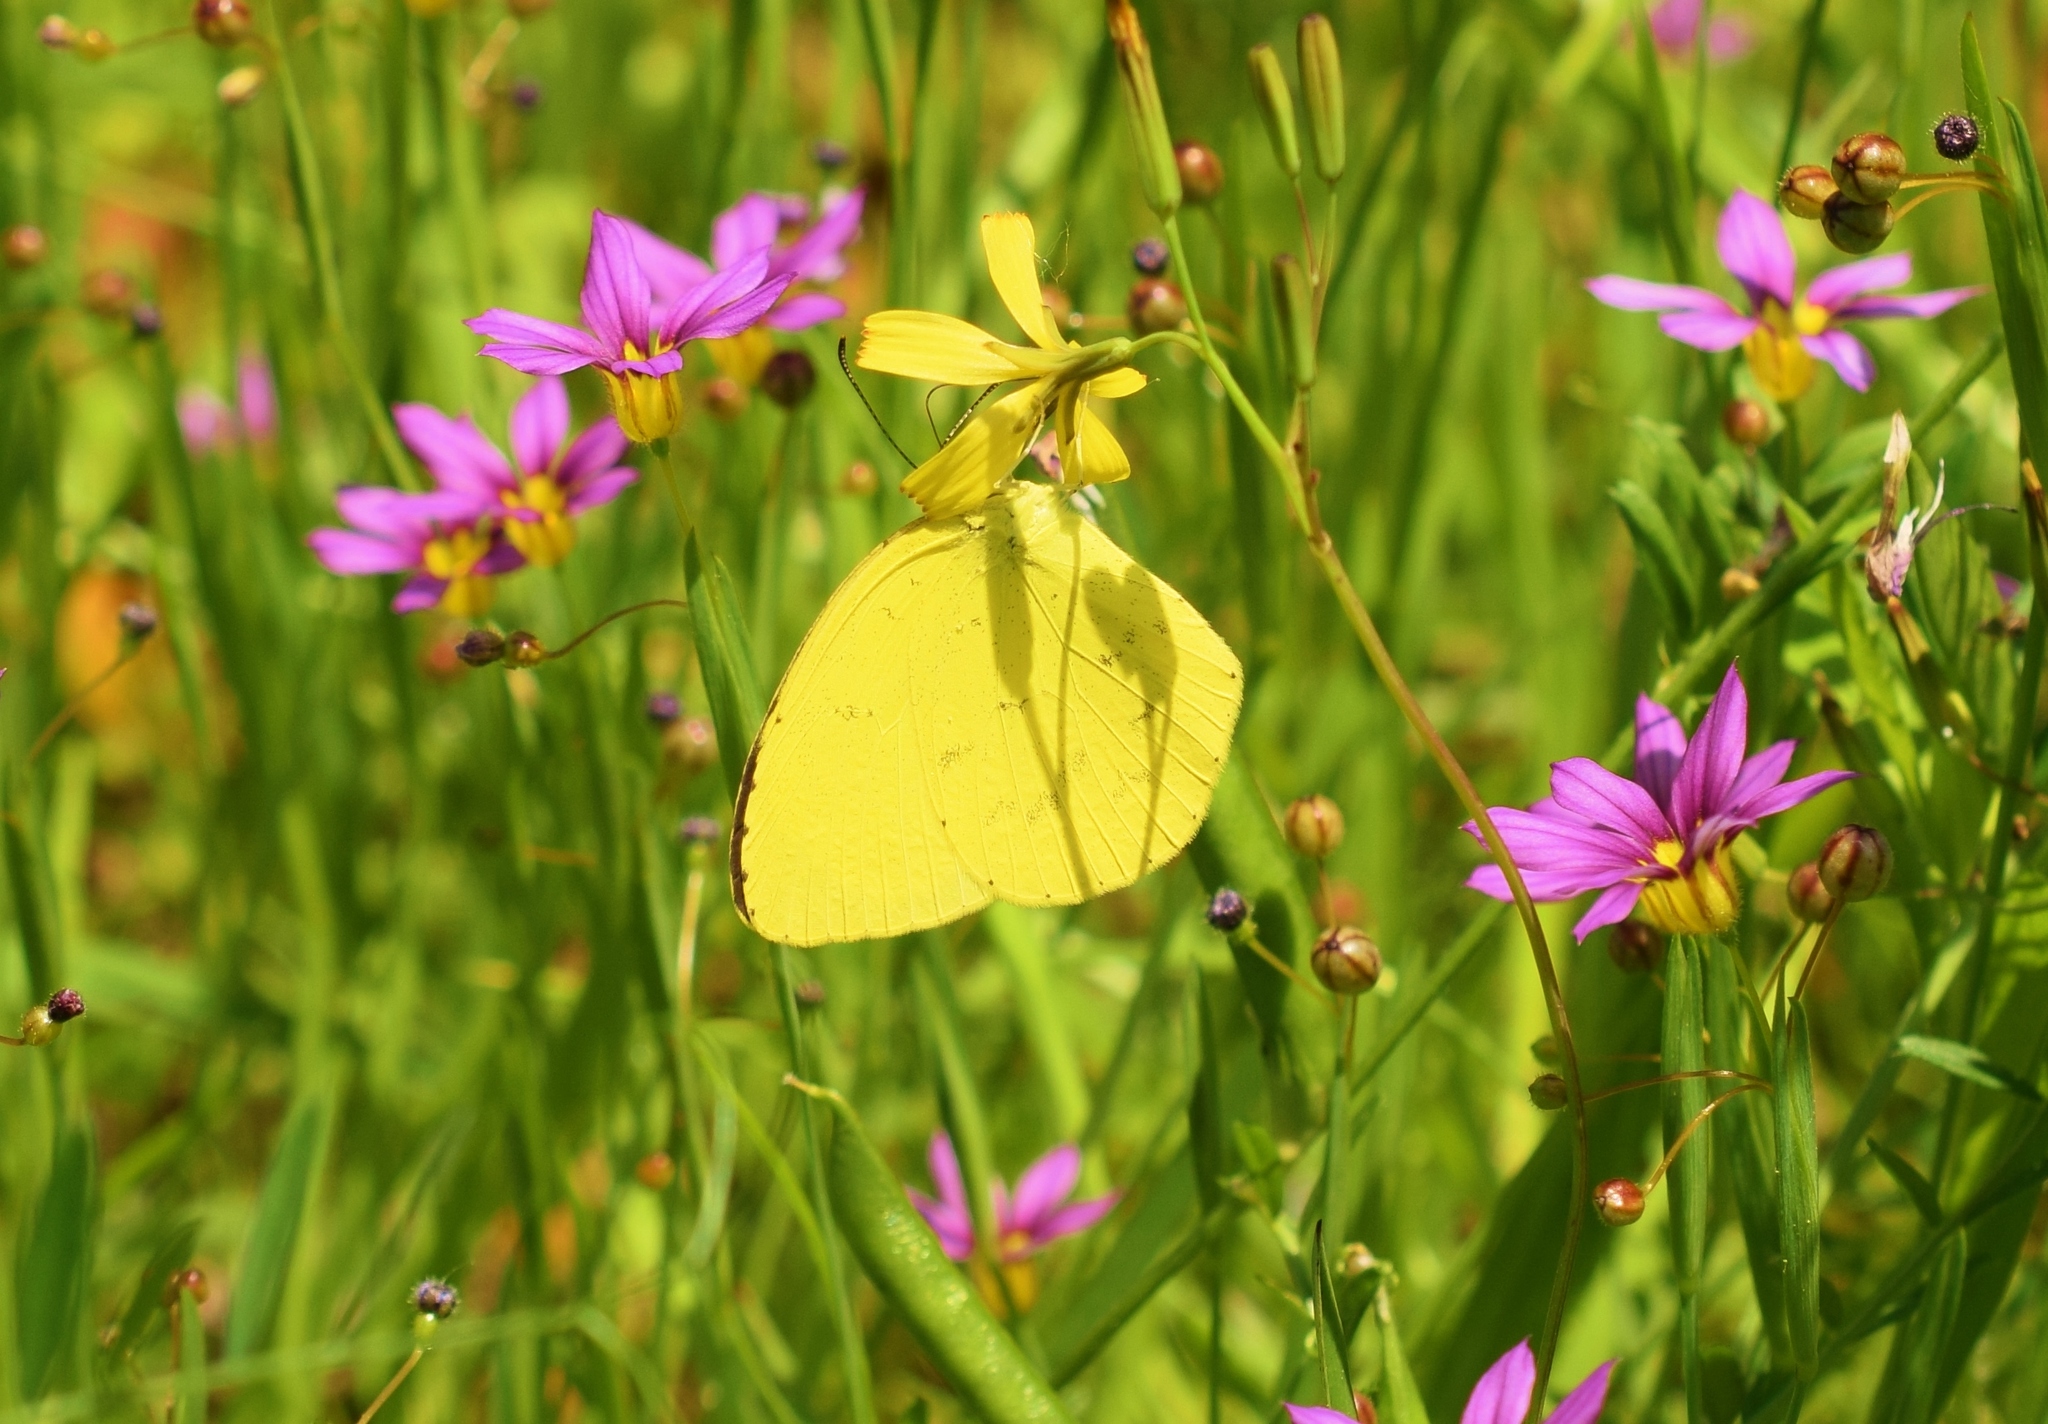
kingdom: Animalia
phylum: Arthropoda
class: Insecta
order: Lepidoptera
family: Pieridae
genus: Eurema
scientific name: Eurema mandarina
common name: Japanese common grass yellow
